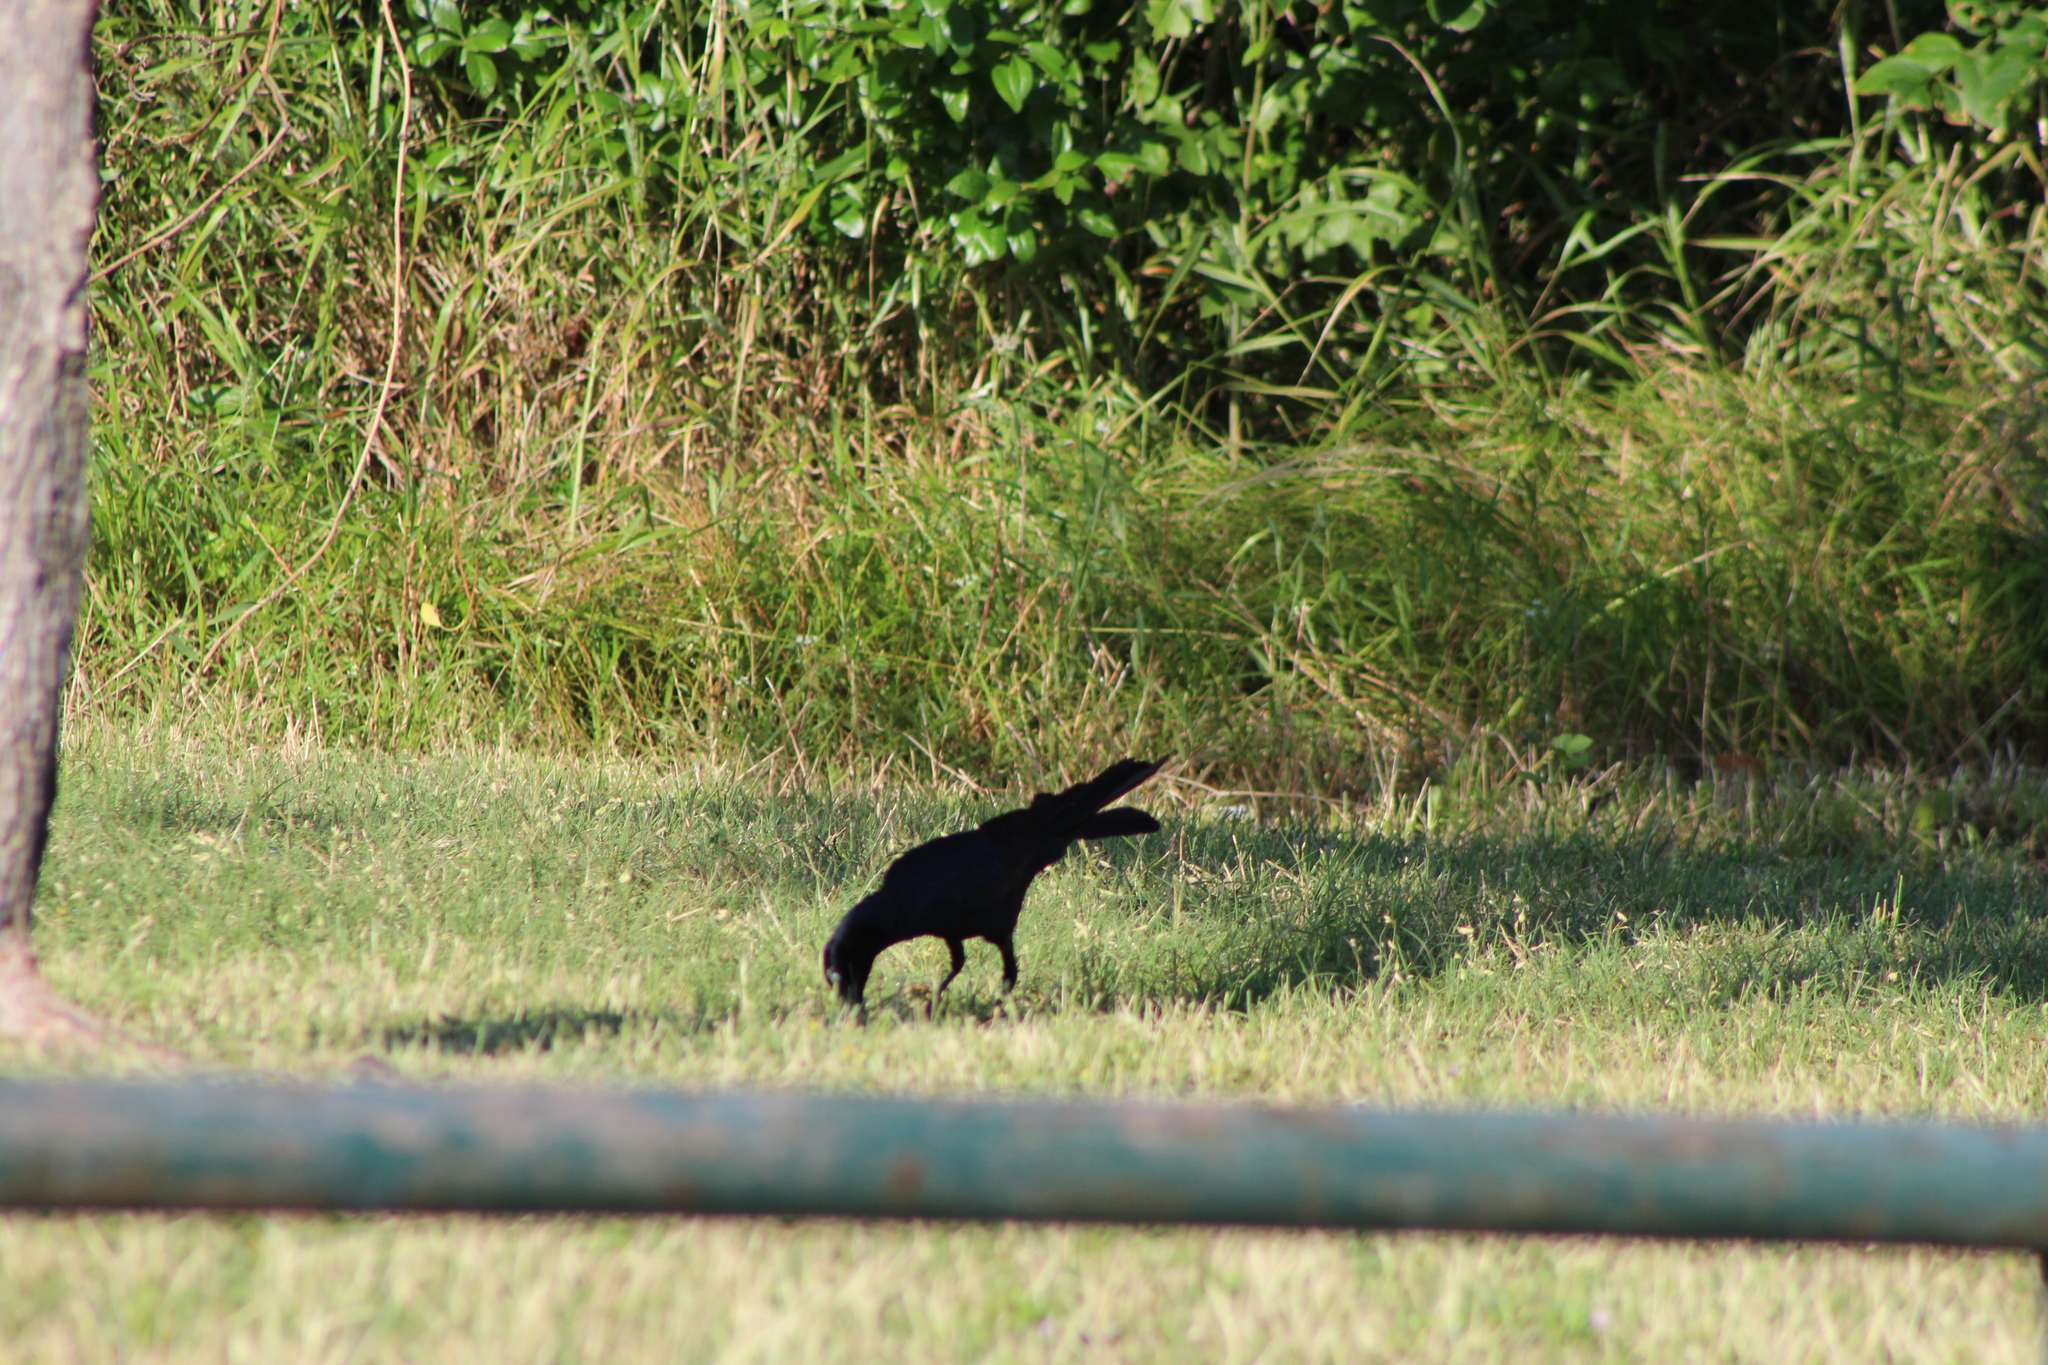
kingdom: Animalia
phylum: Chordata
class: Aves
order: Passeriformes
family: Icteridae
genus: Quiscalus
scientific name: Quiscalus mexicanus
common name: Great-tailed grackle
